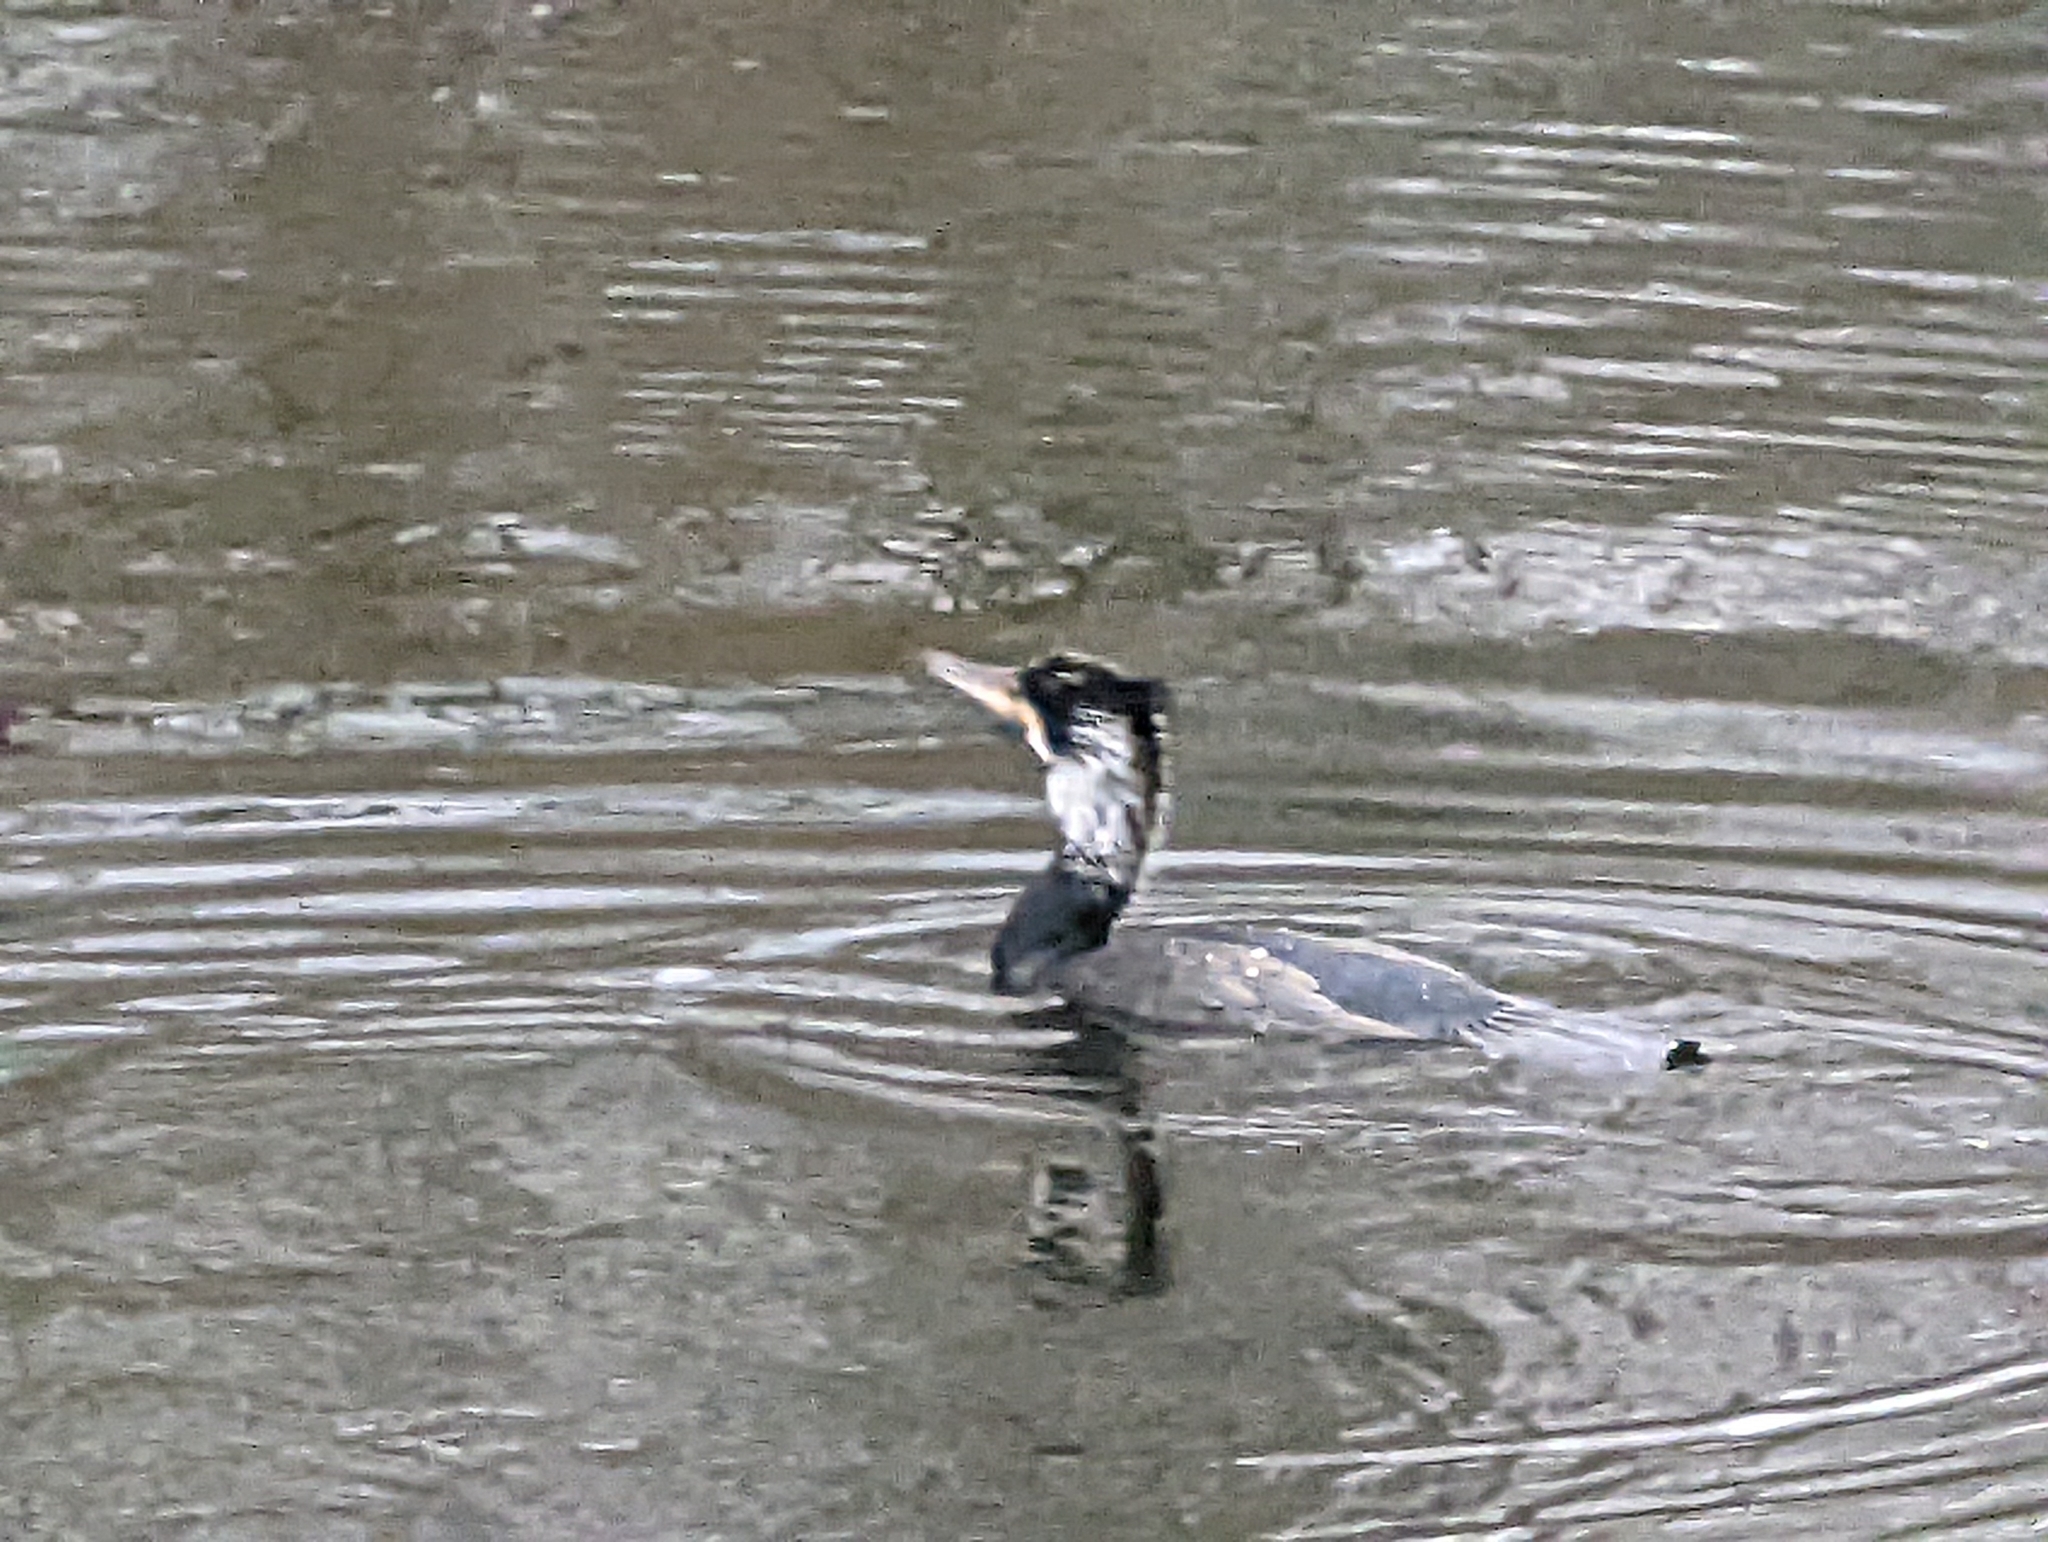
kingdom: Animalia
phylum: Chordata
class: Aves
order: Suliformes
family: Phalacrocoracidae
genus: Phalacrocorax
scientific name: Phalacrocorax carbo
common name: Great cormorant
